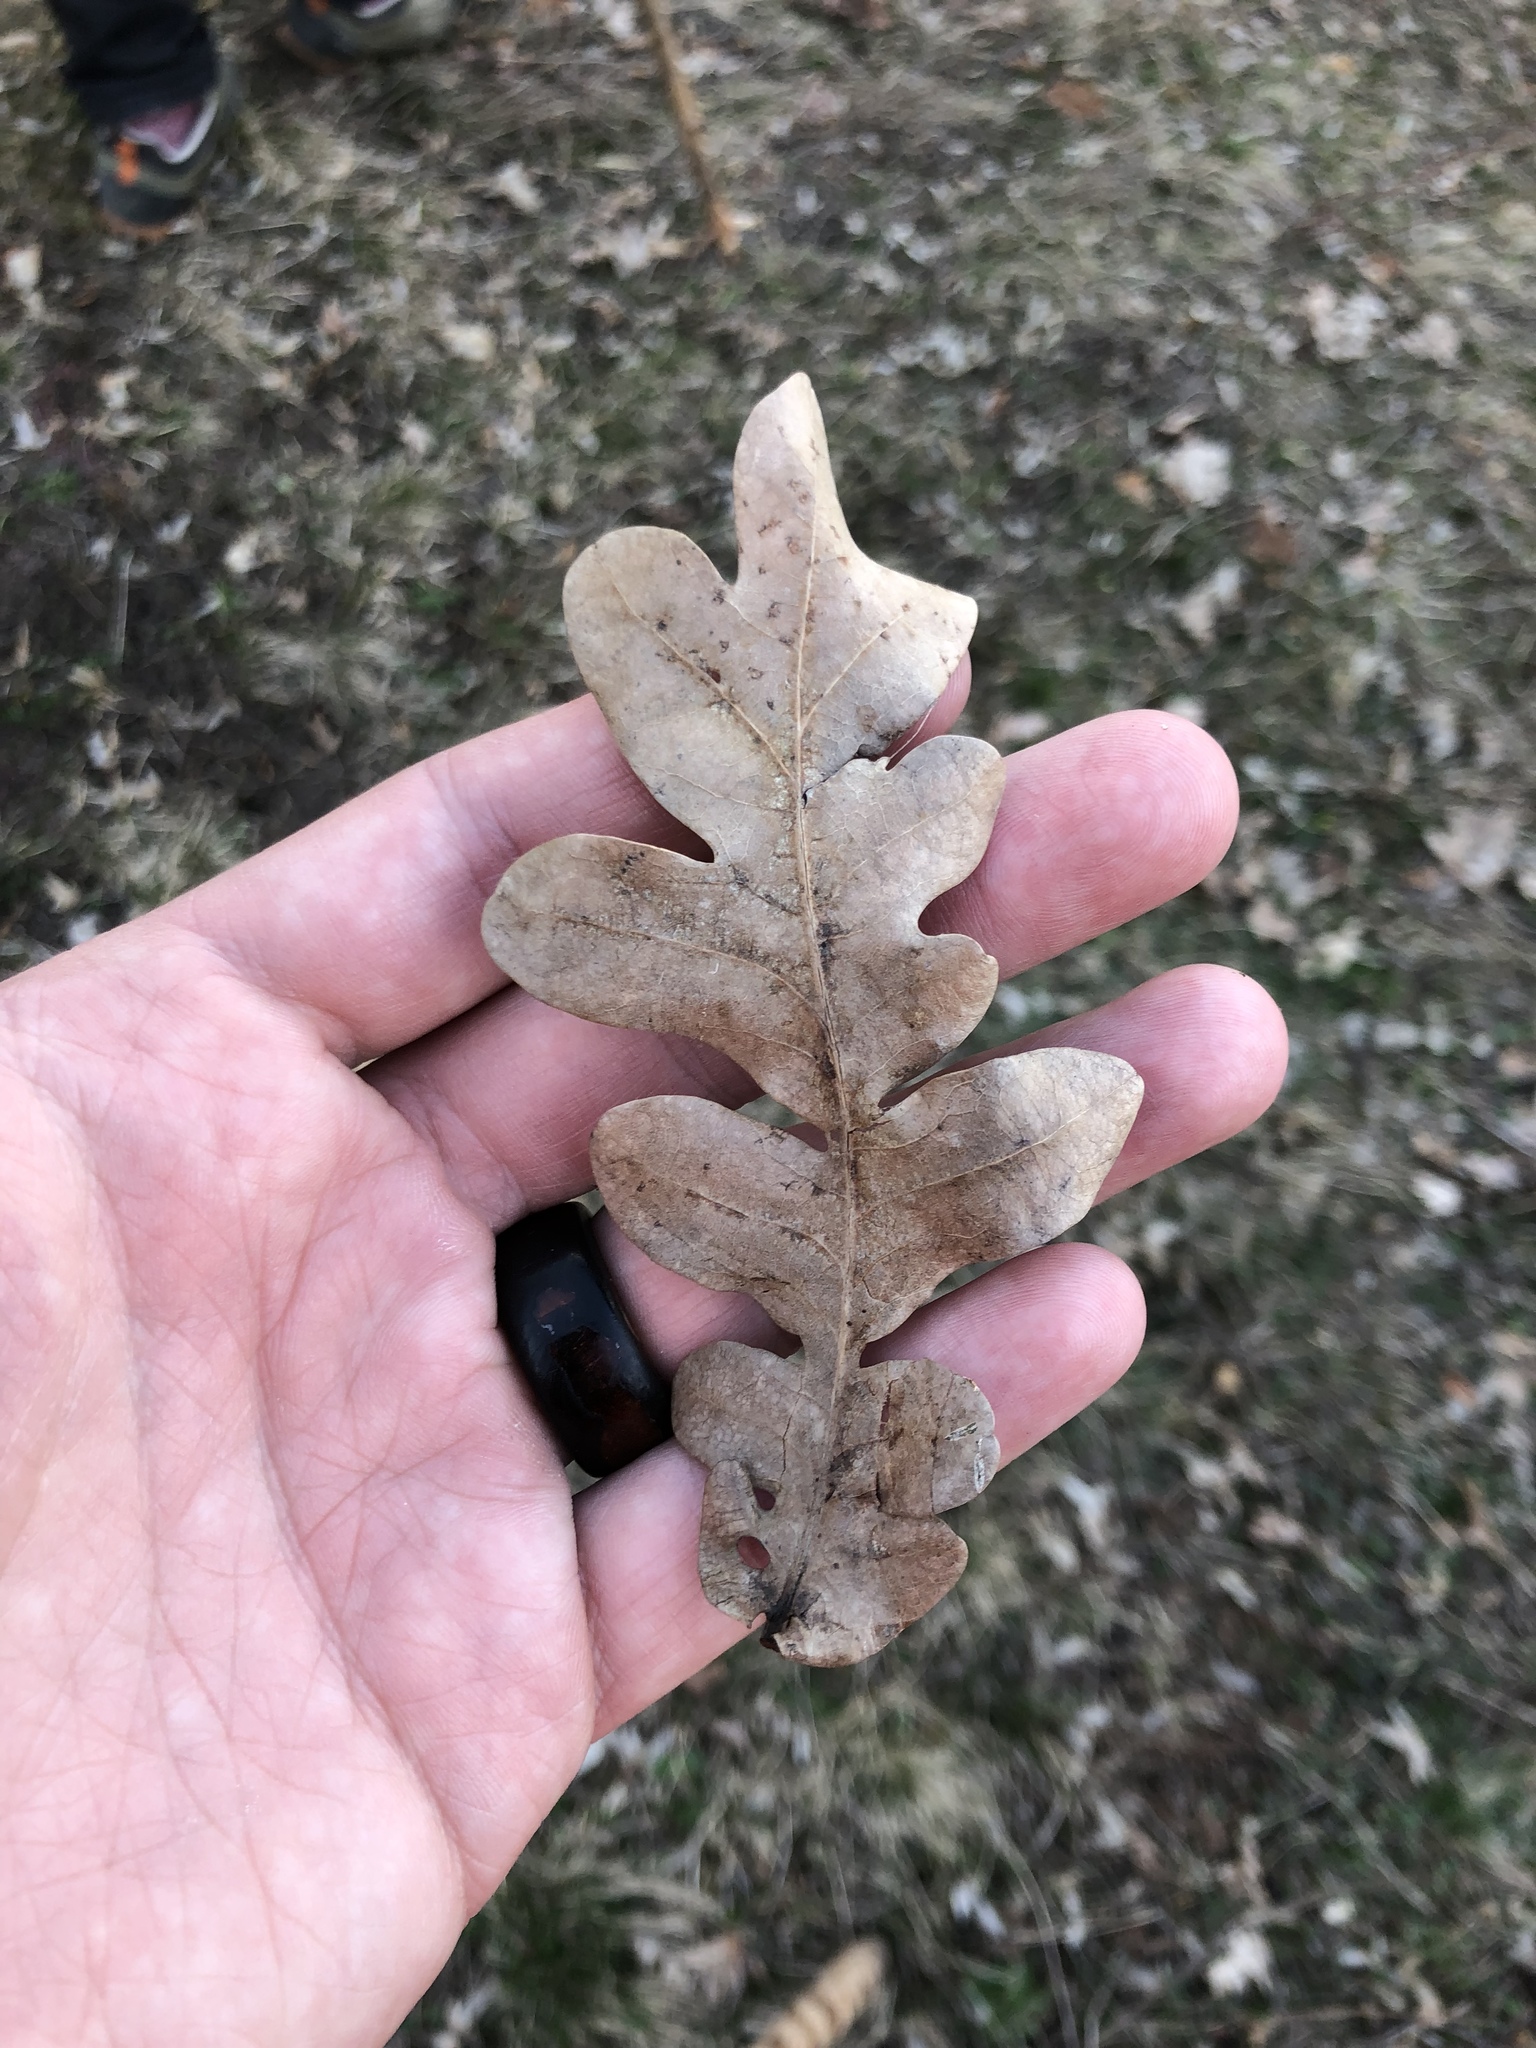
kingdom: Plantae
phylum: Tracheophyta
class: Magnoliopsida
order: Fagales
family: Fagaceae
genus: Quercus
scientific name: Quercus petraea
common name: Sessile oak
